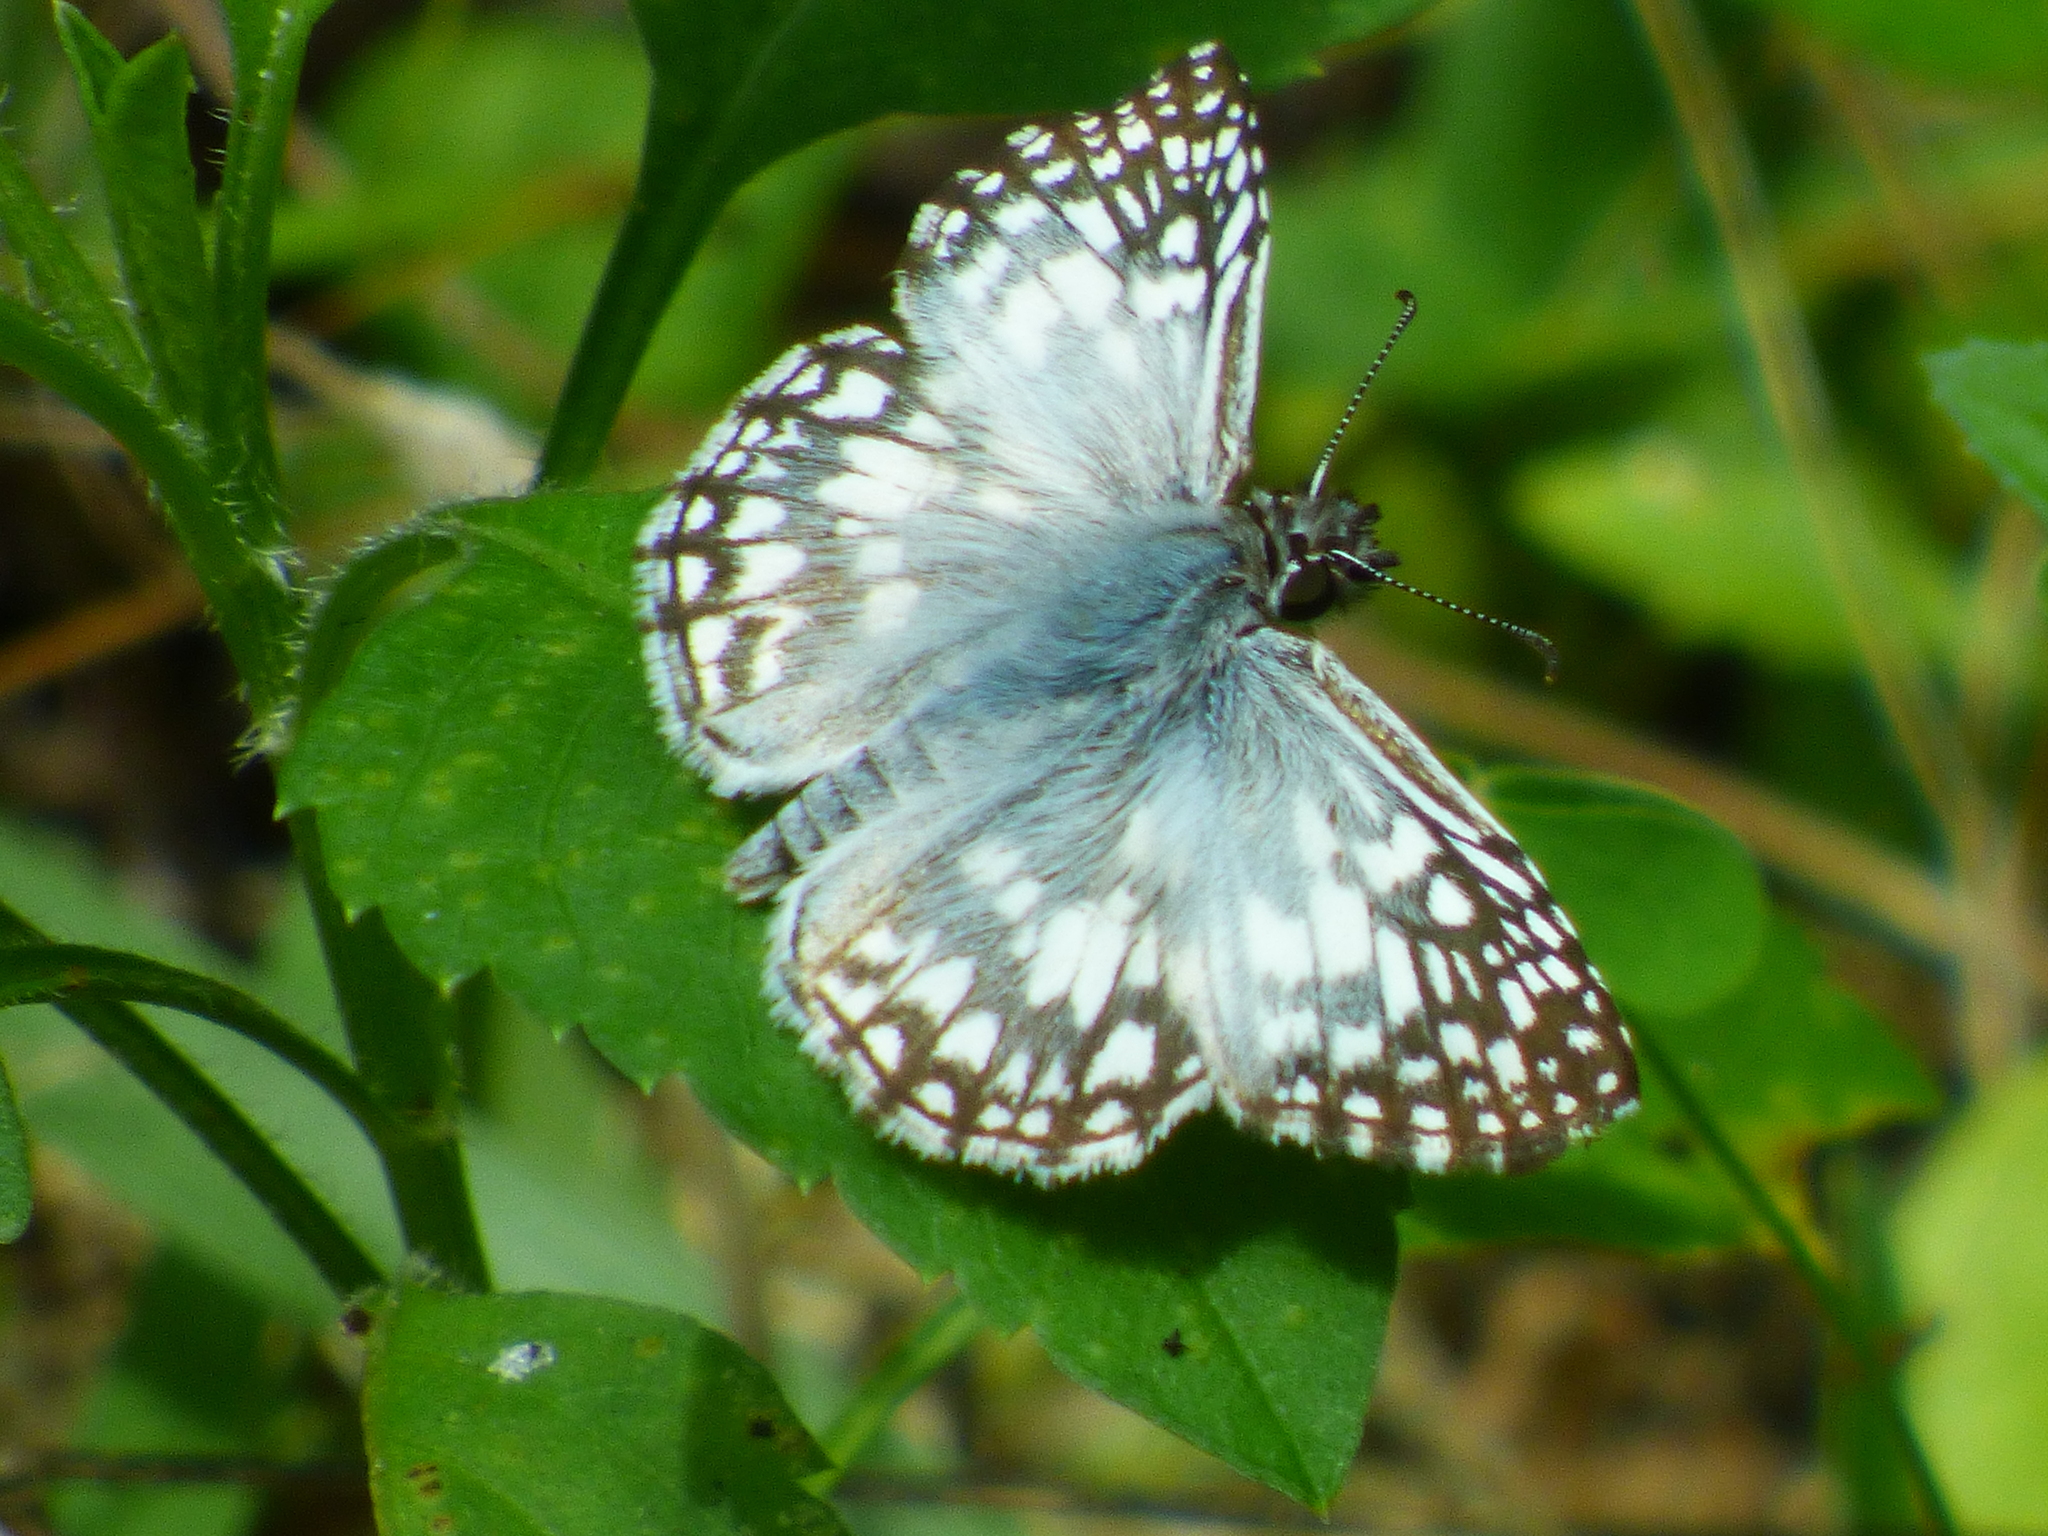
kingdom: Animalia
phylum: Arthropoda
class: Insecta
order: Lepidoptera
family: Hesperiidae
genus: Pyrgus
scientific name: Pyrgus oileus
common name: Tropical checkered-skipper
